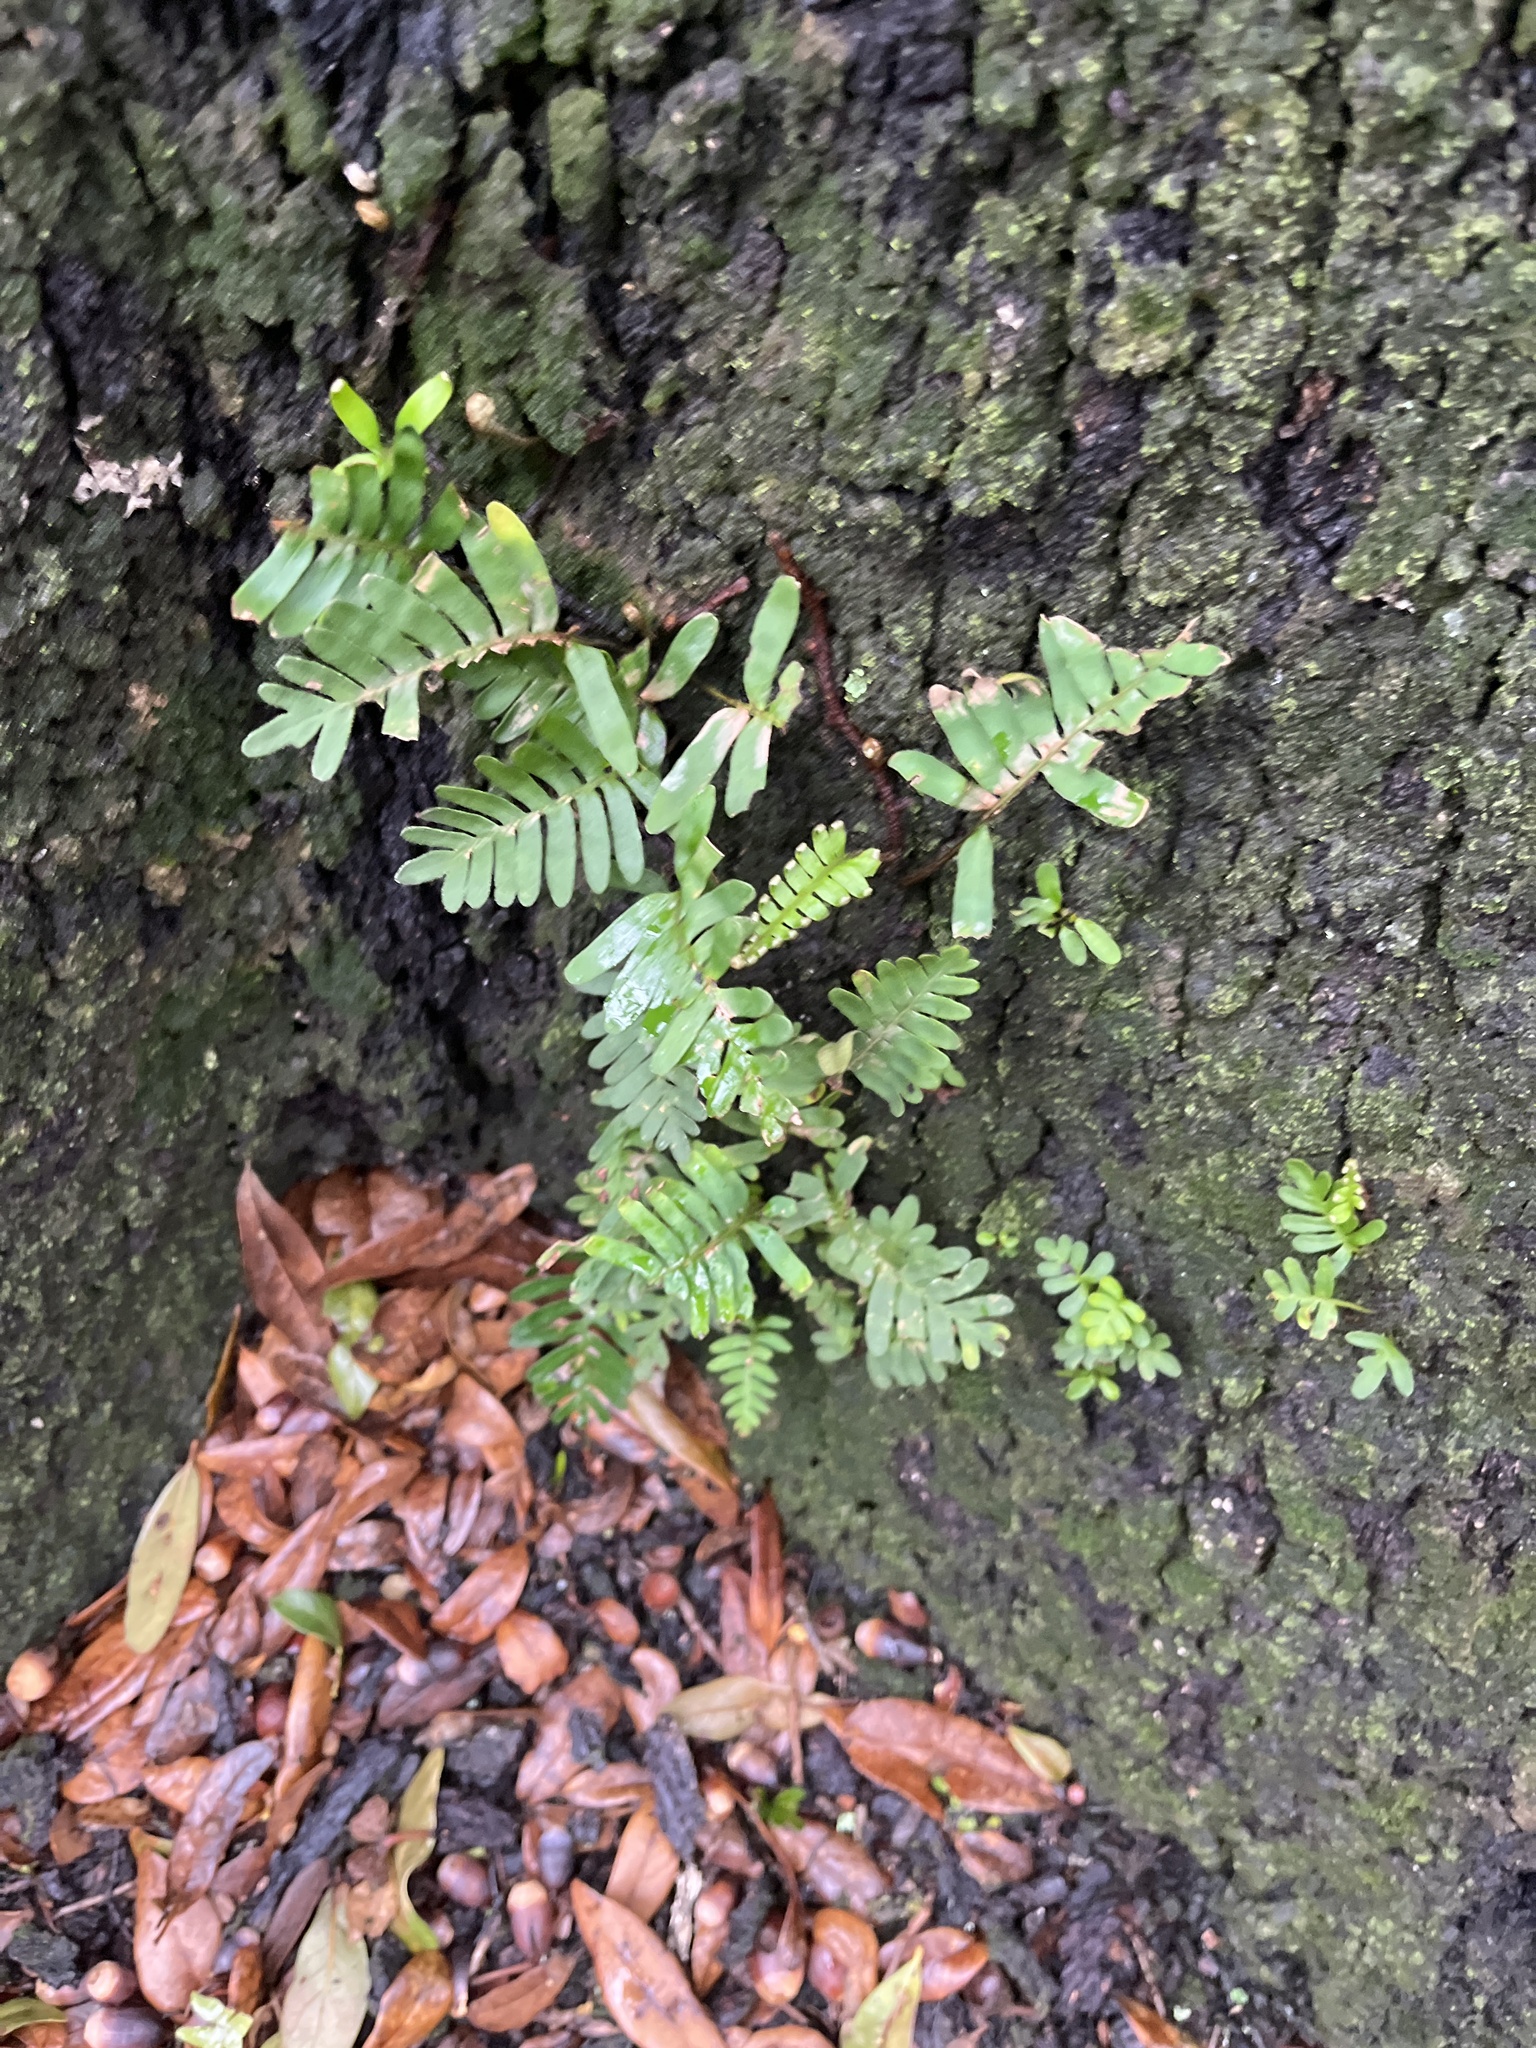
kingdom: Plantae
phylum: Tracheophyta
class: Polypodiopsida
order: Polypodiales
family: Polypodiaceae
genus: Pleopeltis
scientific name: Pleopeltis michauxiana
